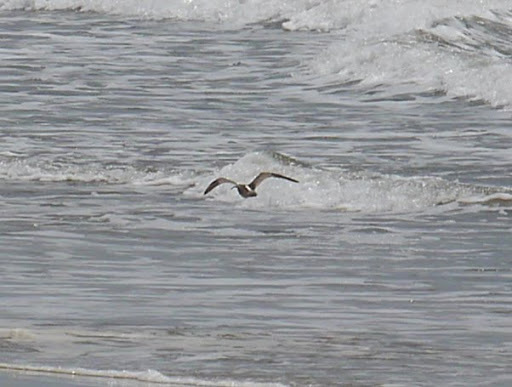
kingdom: Animalia
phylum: Chordata
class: Aves
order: Charadriiformes
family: Scolopacidae
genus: Numenius
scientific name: Numenius phaeopus
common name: Whimbrel
